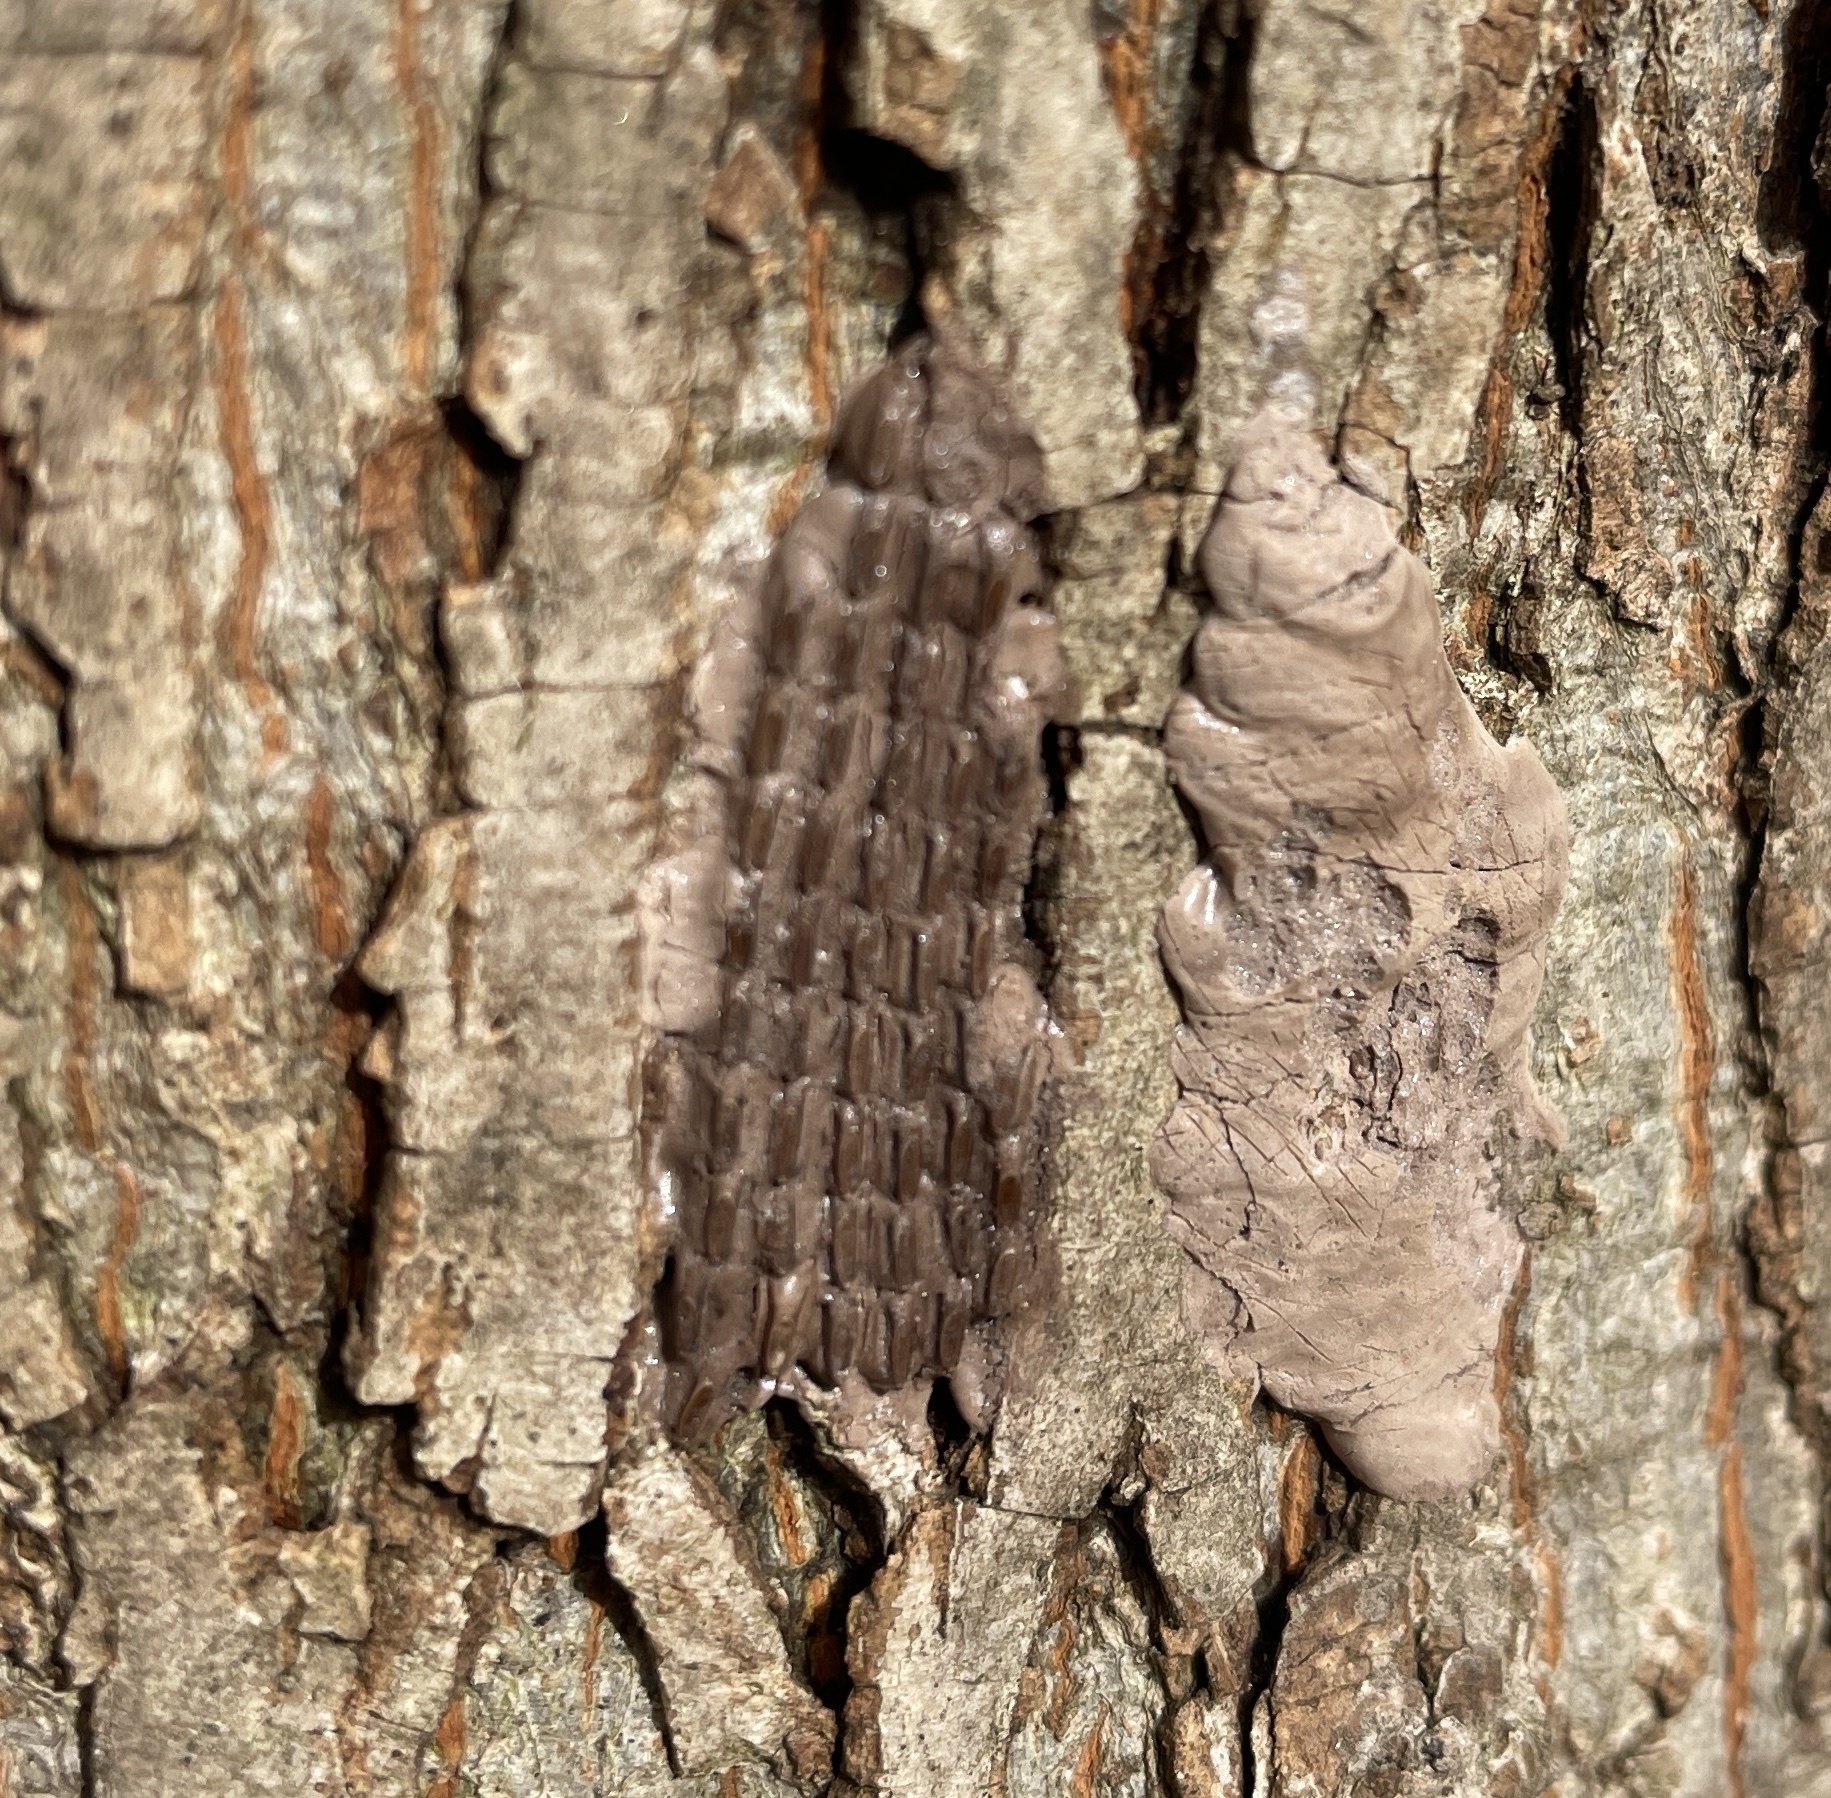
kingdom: Animalia
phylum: Arthropoda
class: Insecta
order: Hemiptera
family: Fulgoridae
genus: Lycorma
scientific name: Lycorma delicatula
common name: Spotted lanternfly
